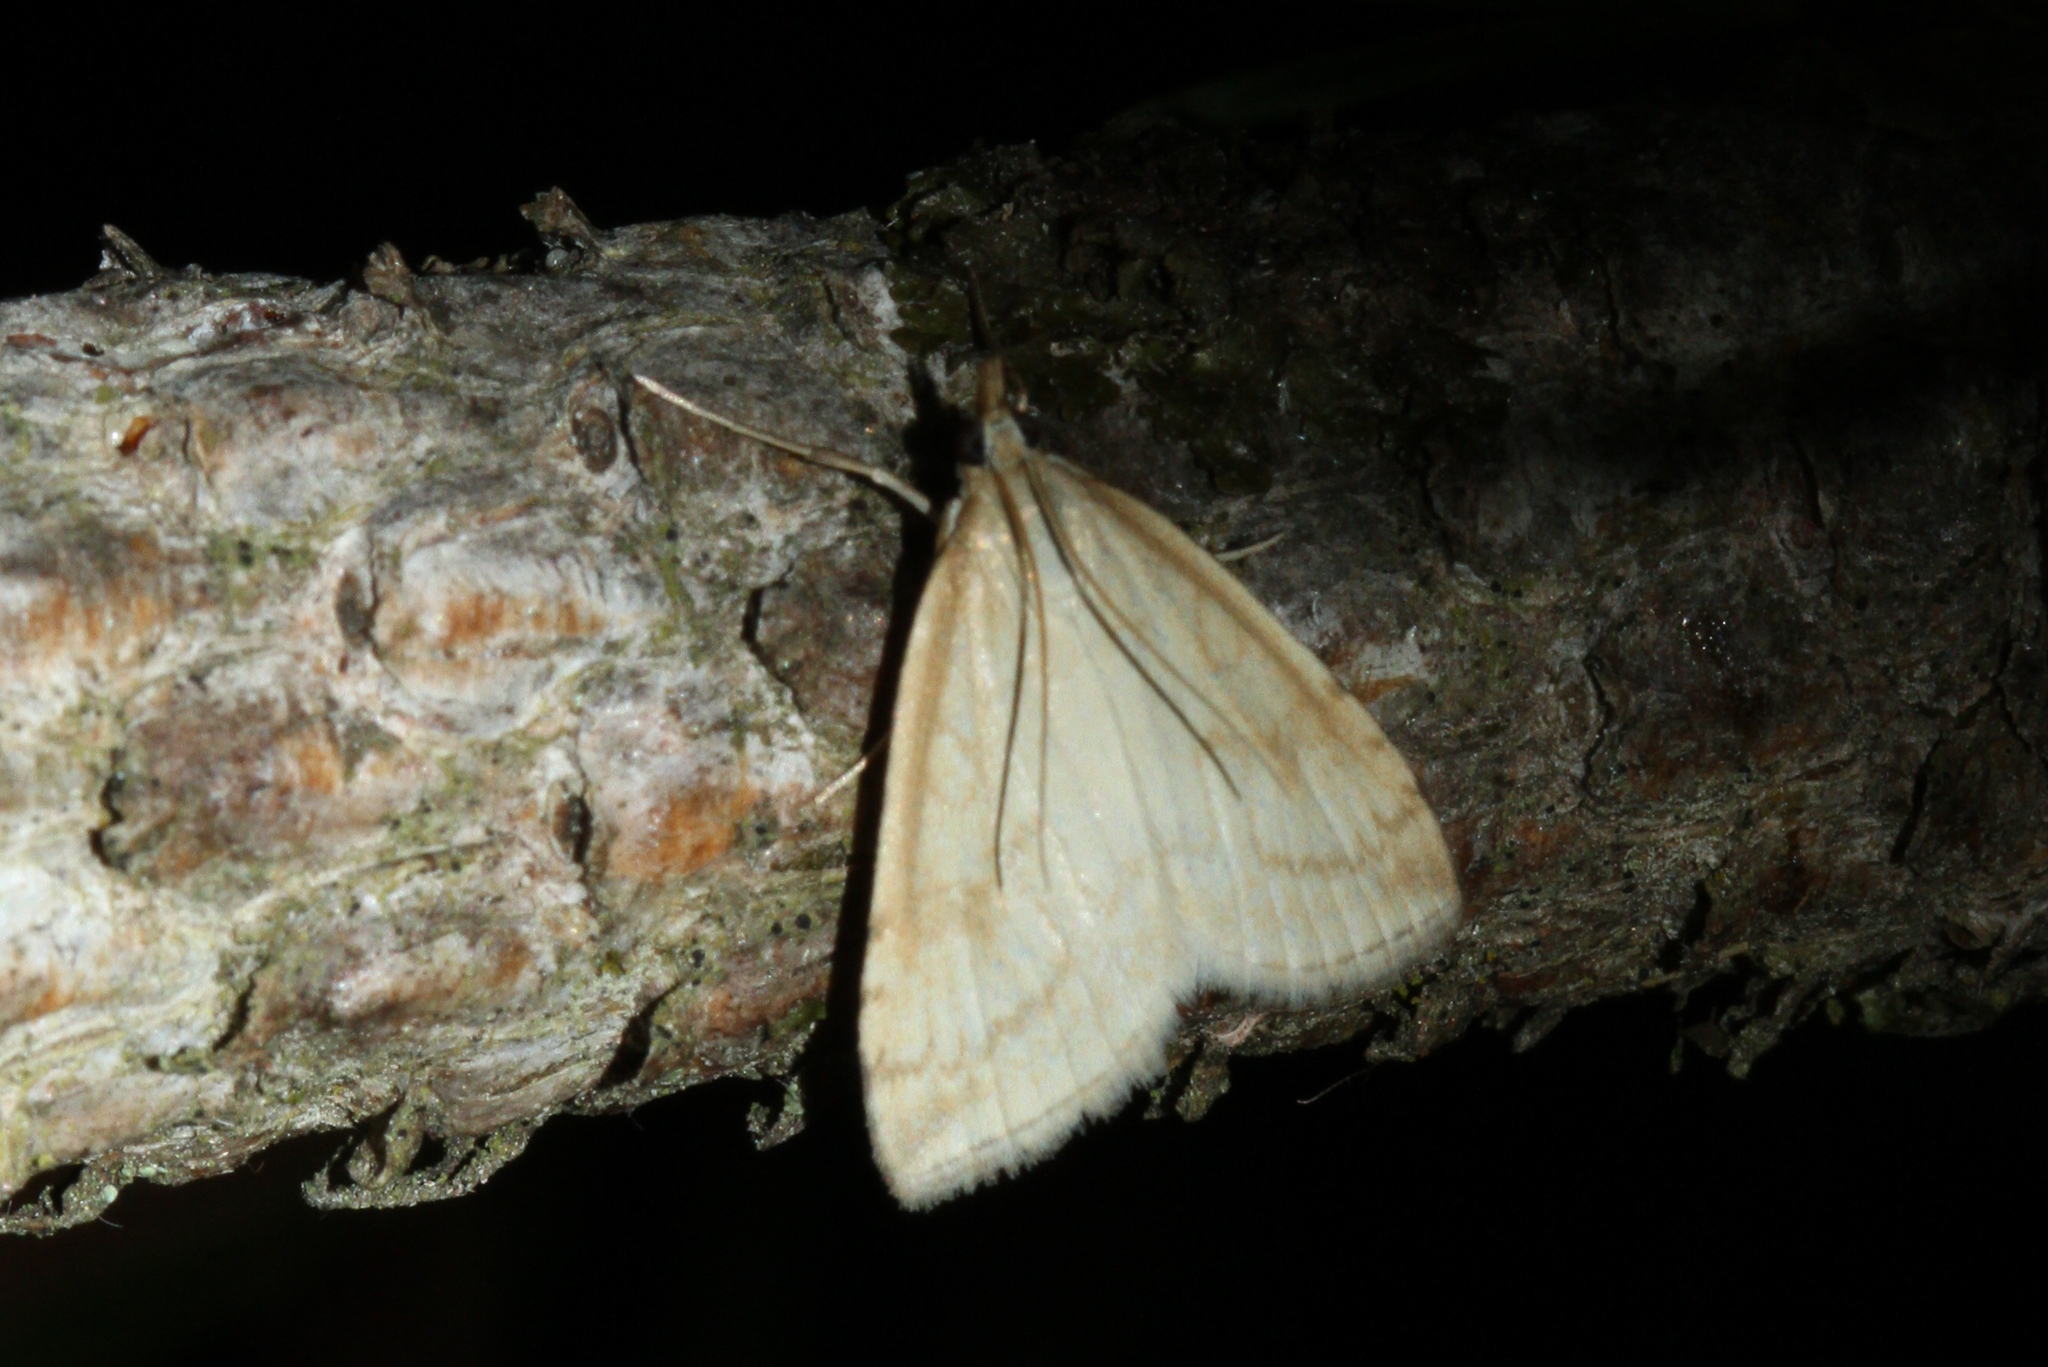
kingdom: Animalia
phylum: Arthropoda
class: Insecta
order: Lepidoptera
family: Crambidae
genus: Udea
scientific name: Udea lutealis
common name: Pale straw pearl
